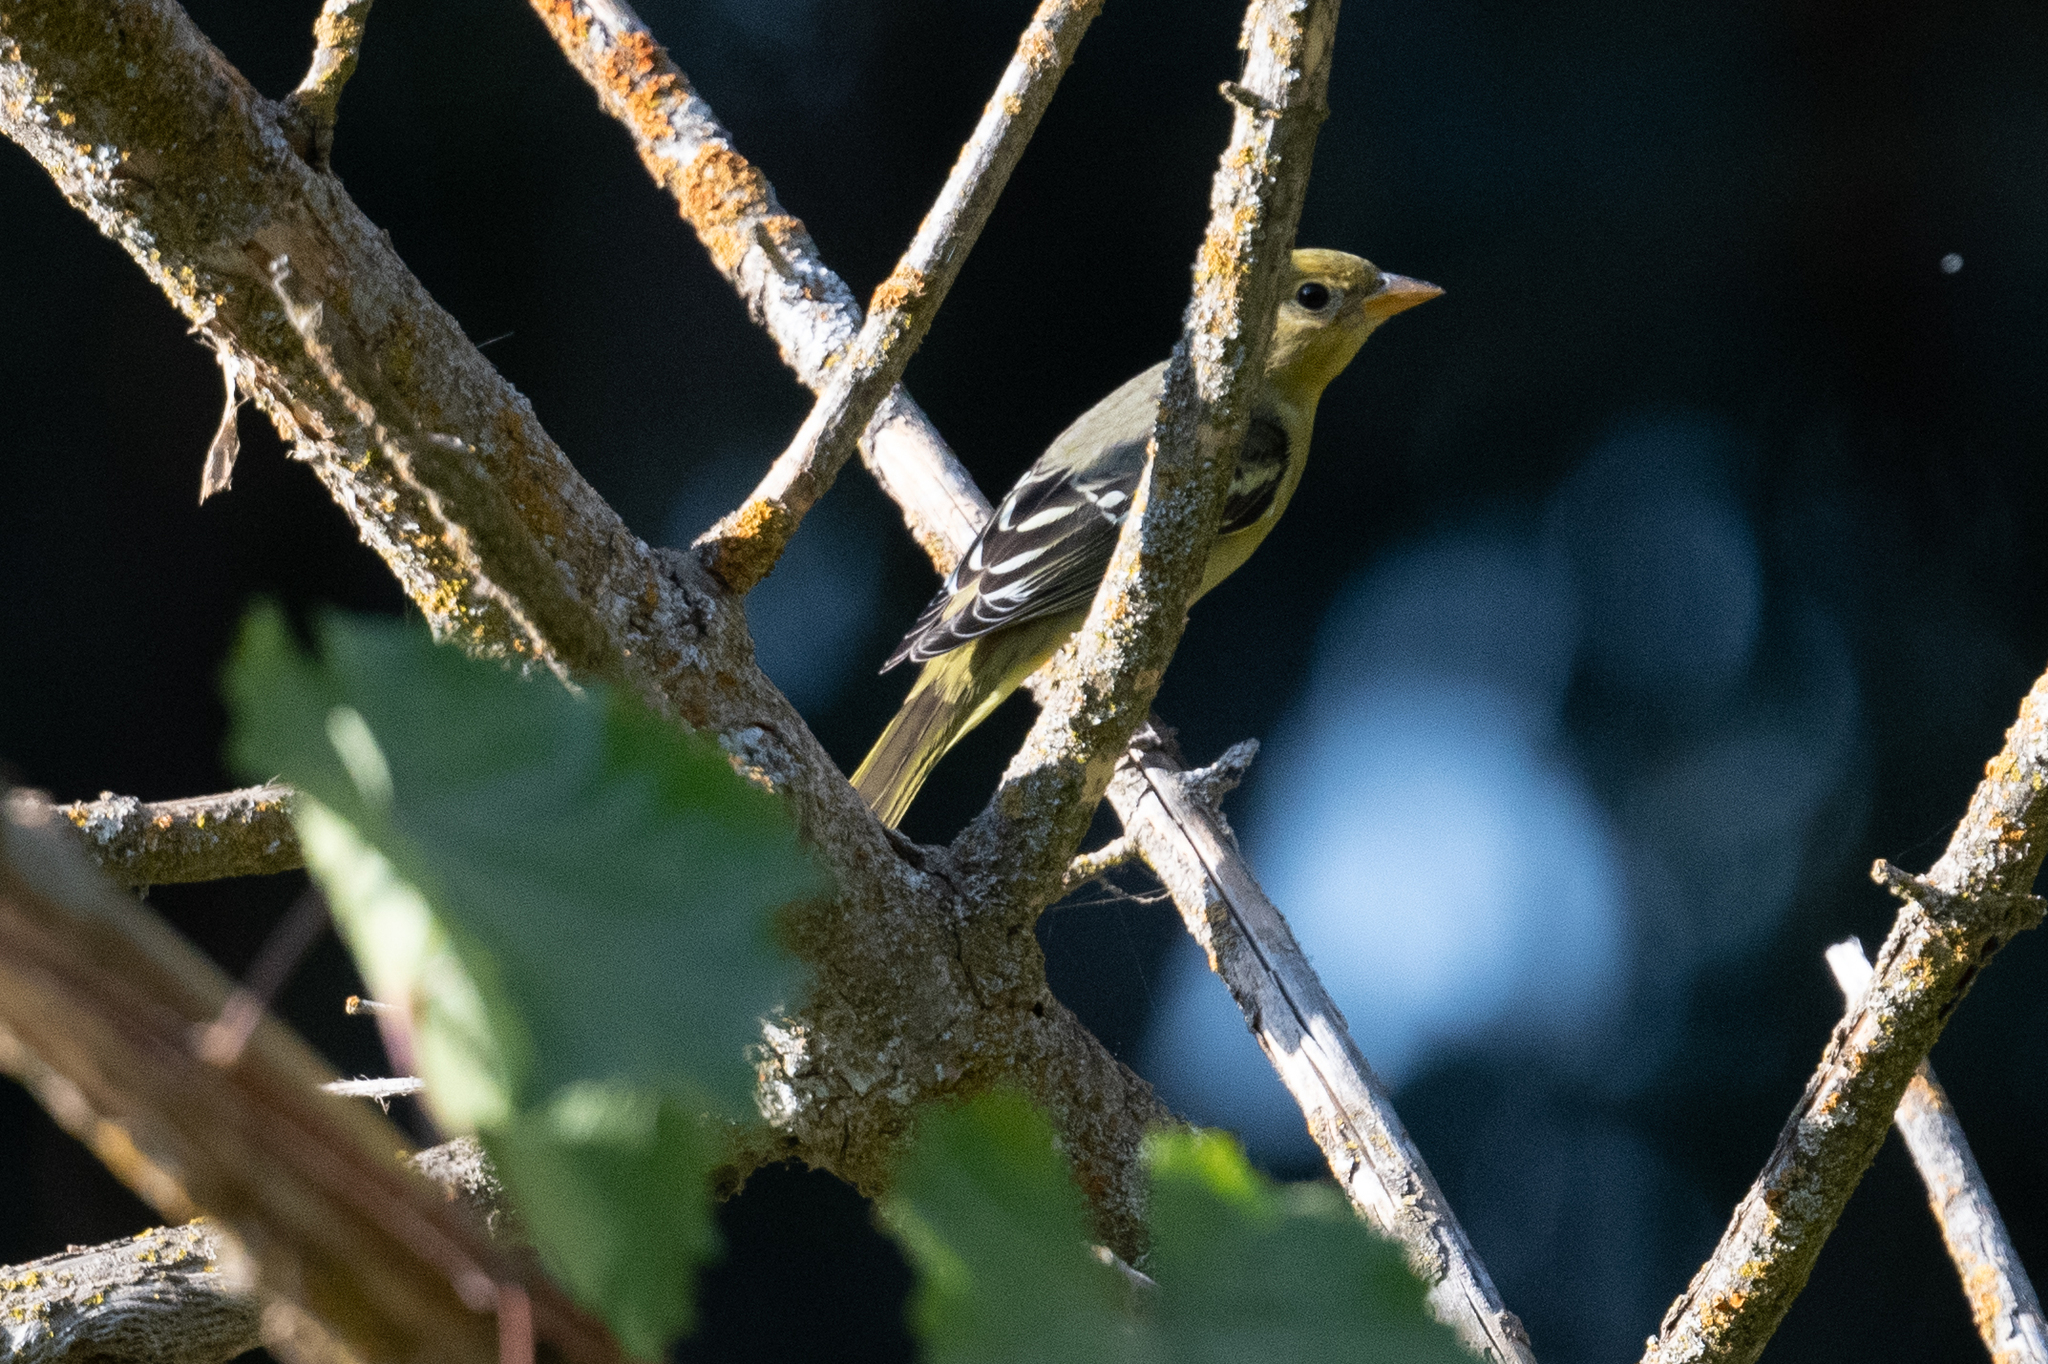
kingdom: Animalia
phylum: Chordata
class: Aves
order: Passeriformes
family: Cardinalidae
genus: Piranga
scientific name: Piranga ludoviciana
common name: Western tanager
